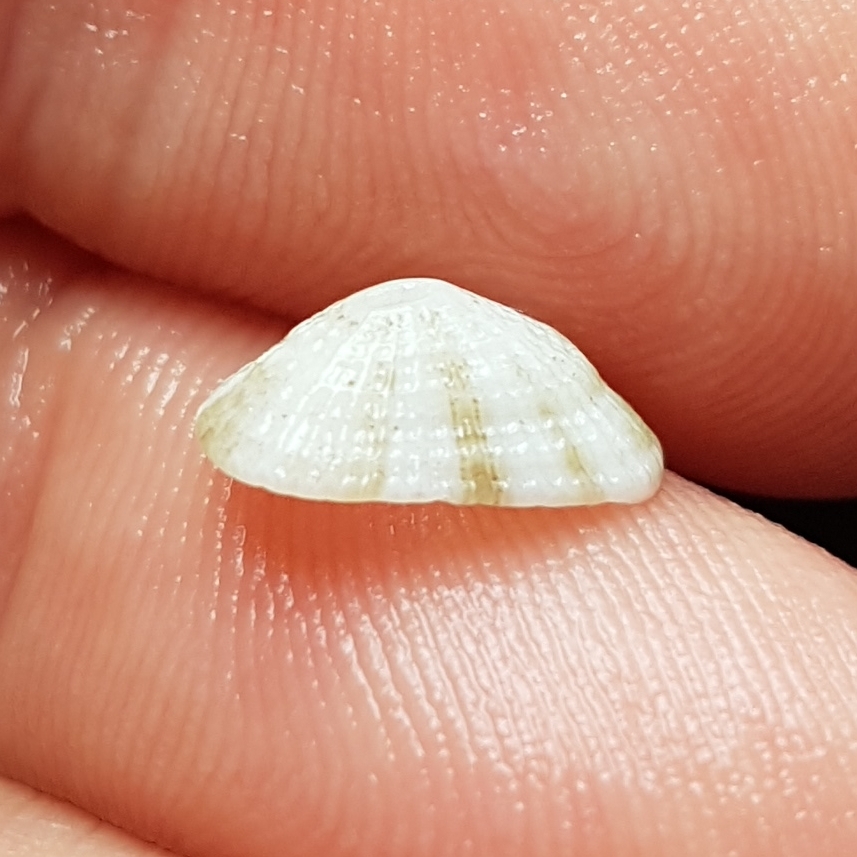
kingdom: Animalia
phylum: Mollusca
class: Gastropoda
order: Lepetellida
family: Fissurellidae
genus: Diodora
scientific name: Diodora graeca
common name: Common keyhole limpet
